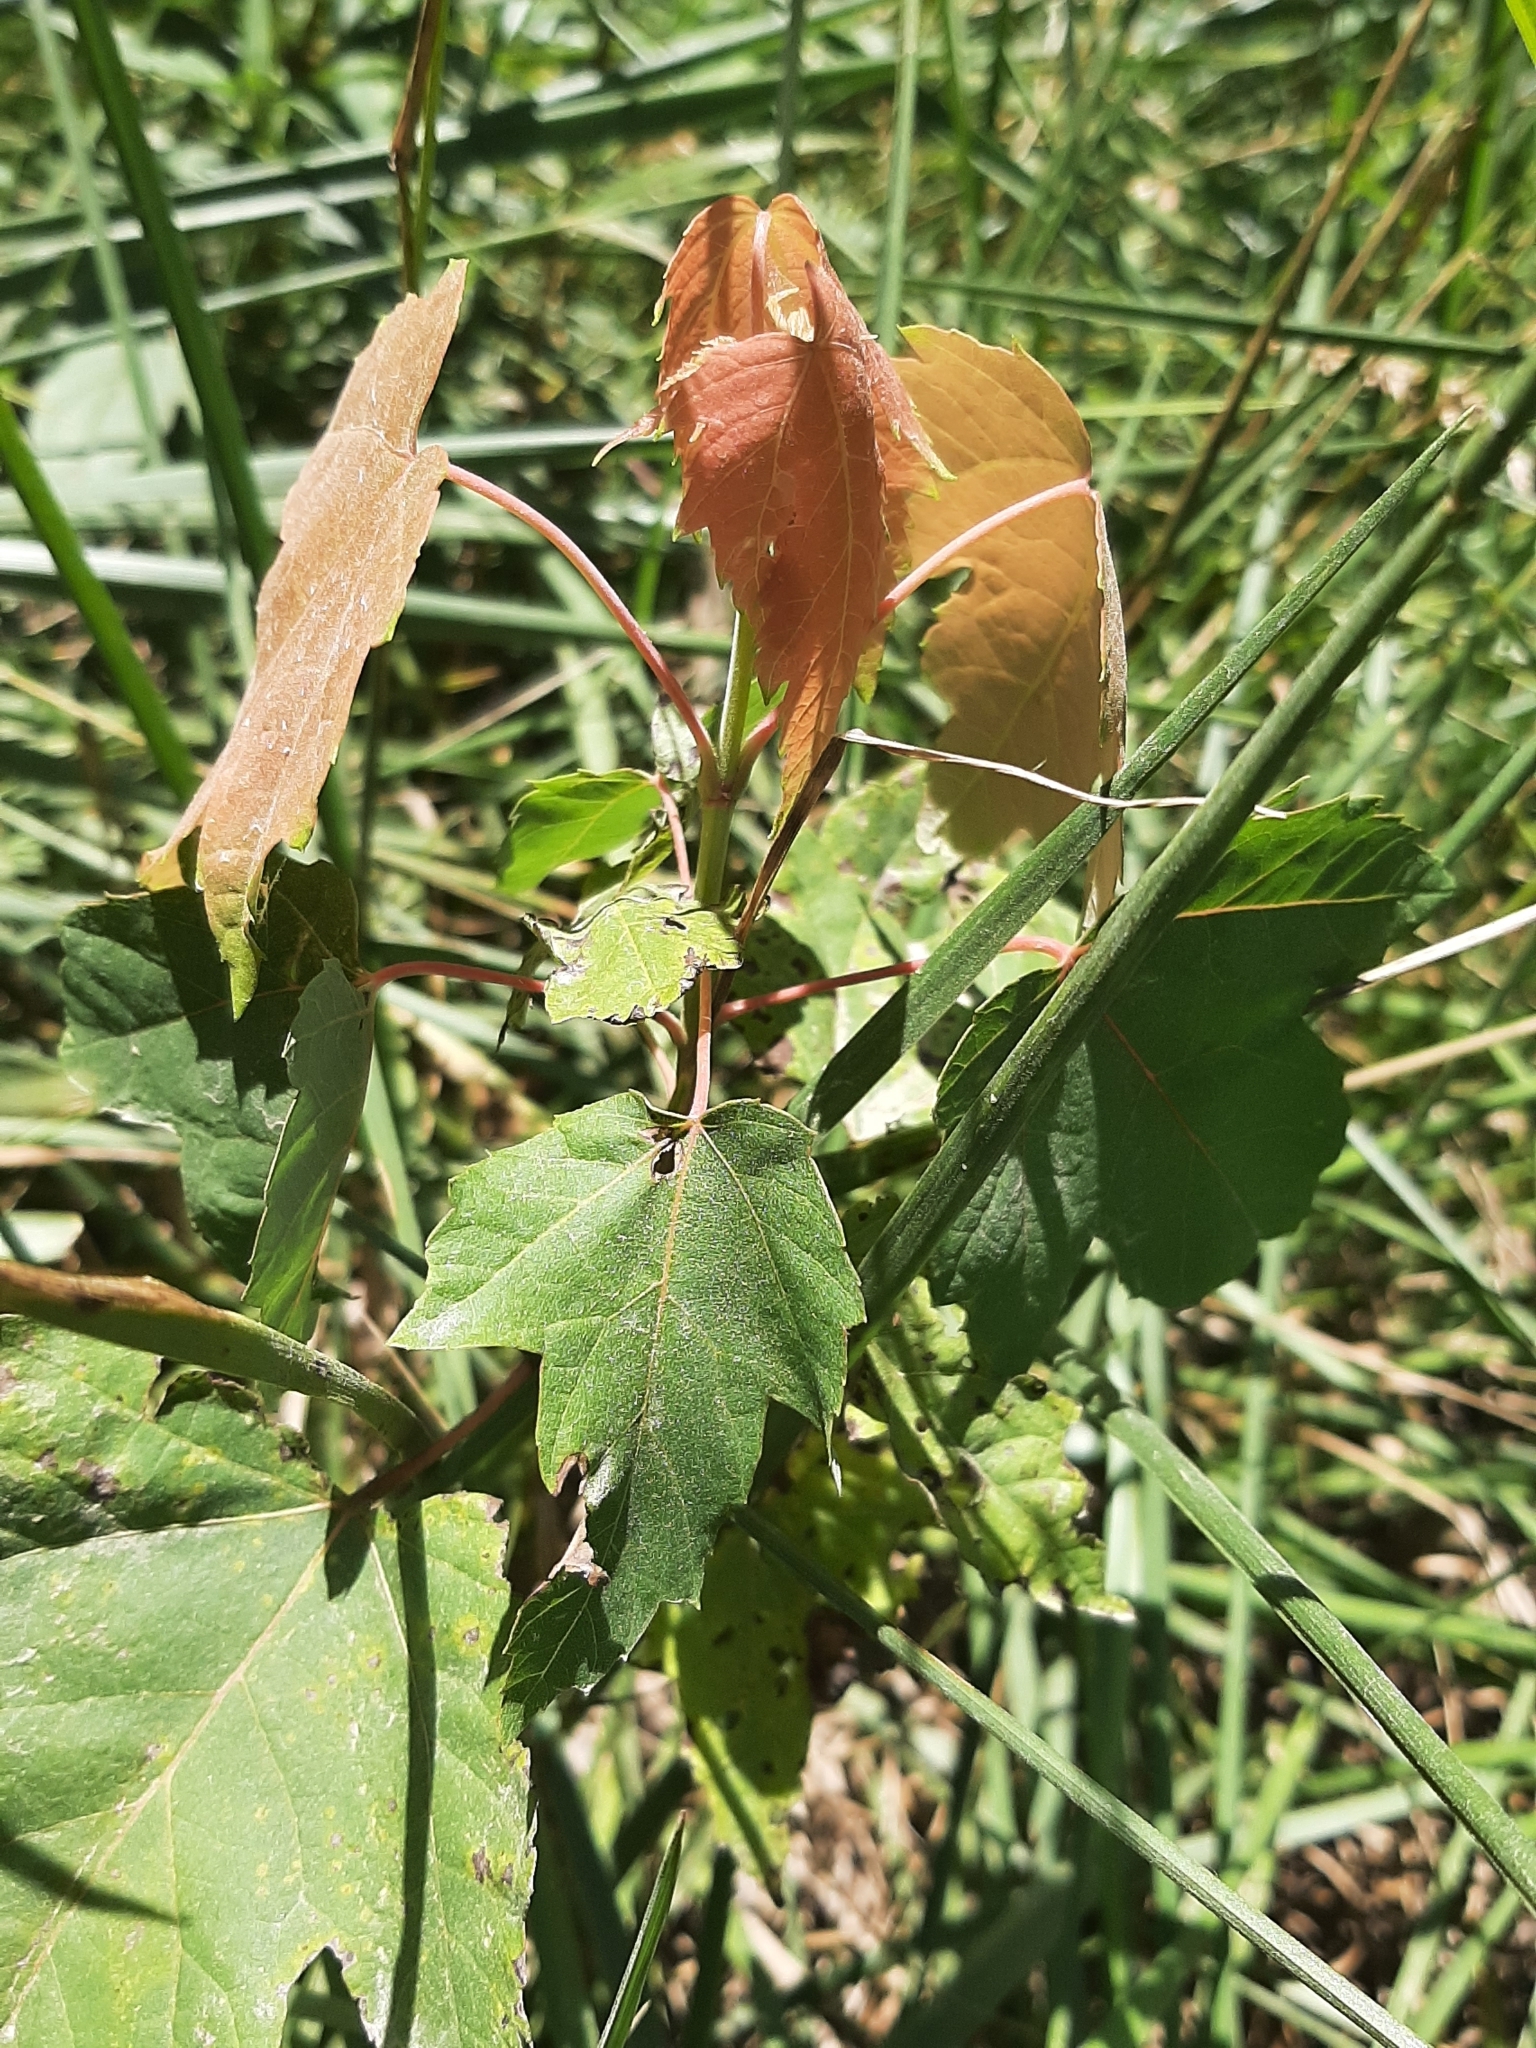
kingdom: Plantae
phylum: Tracheophyta
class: Magnoliopsida
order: Sapindales
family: Sapindaceae
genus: Acer
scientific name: Acer rubrum
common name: Red maple
